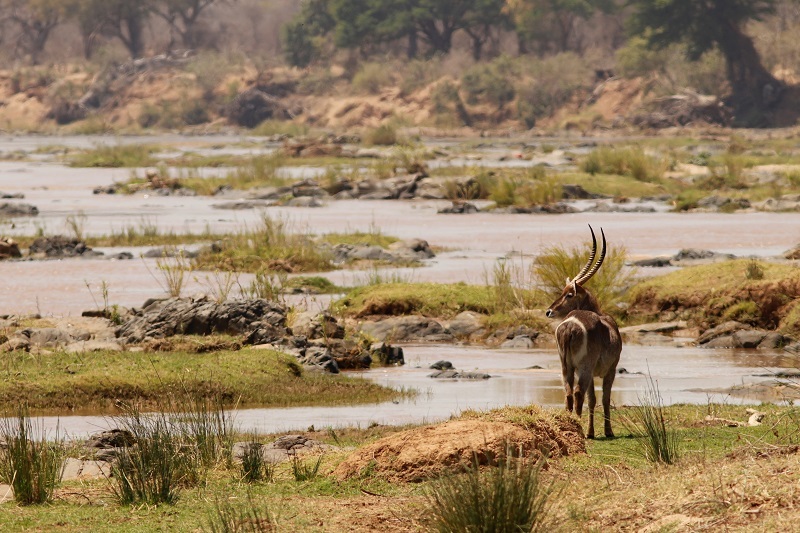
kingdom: Animalia
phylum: Chordata
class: Mammalia
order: Artiodactyla
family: Bovidae
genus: Kobus
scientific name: Kobus ellipsiprymnus
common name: Waterbuck
